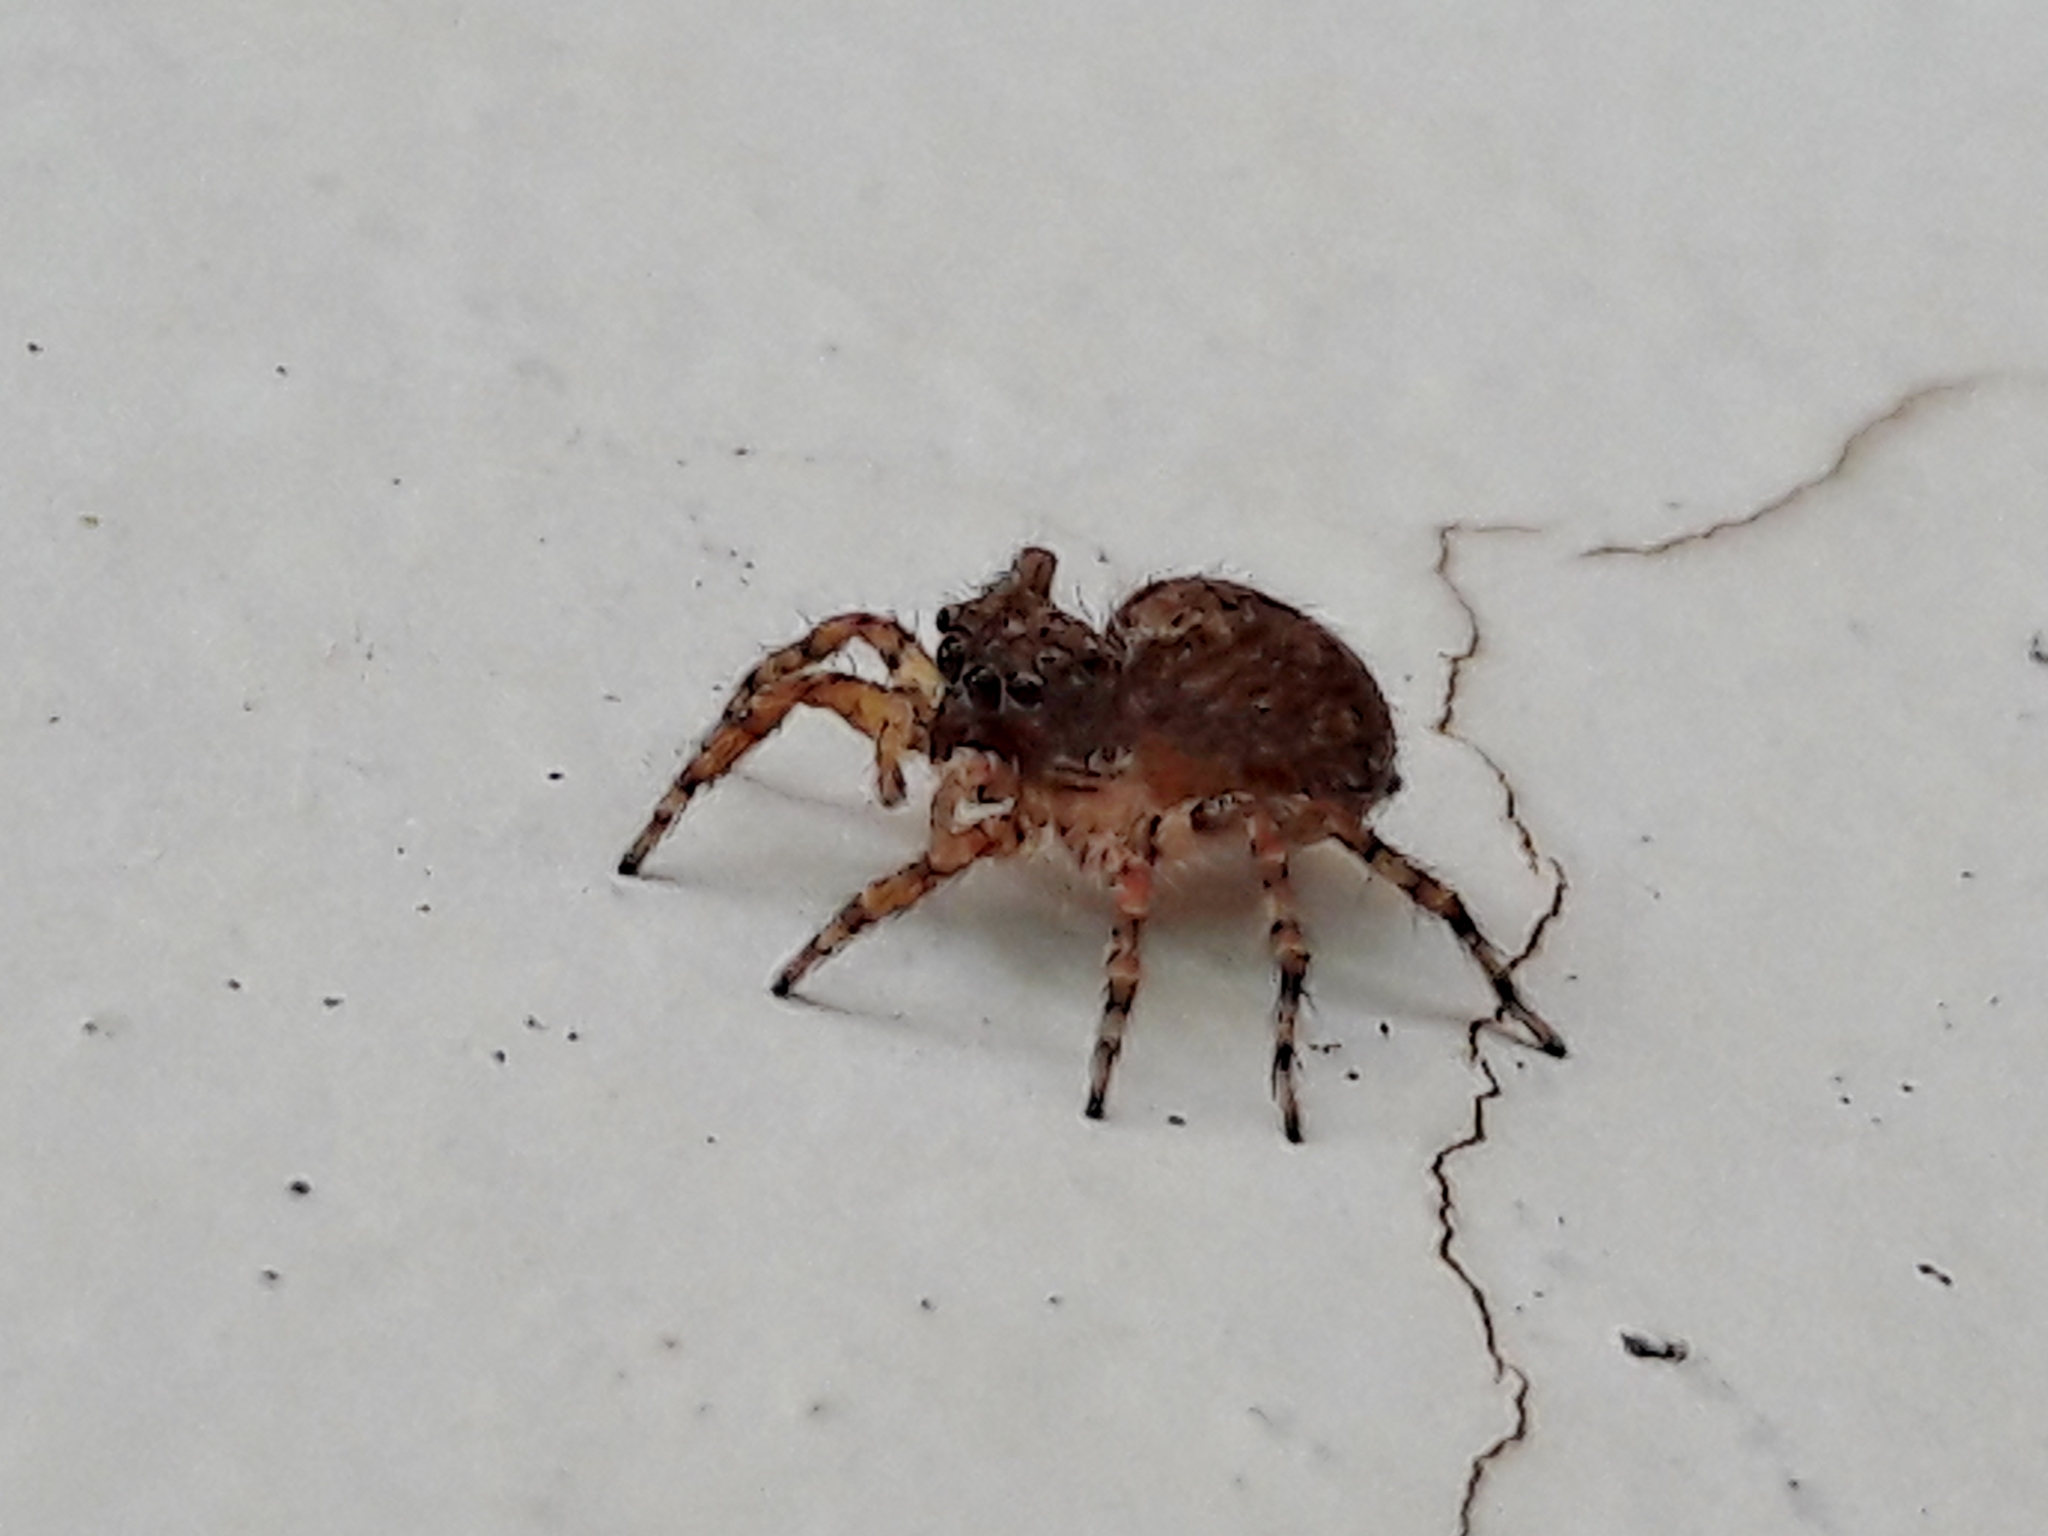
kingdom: Animalia
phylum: Arthropoda
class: Arachnida
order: Araneae
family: Salticidae
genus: Marma
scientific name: Marma nigritarsis
